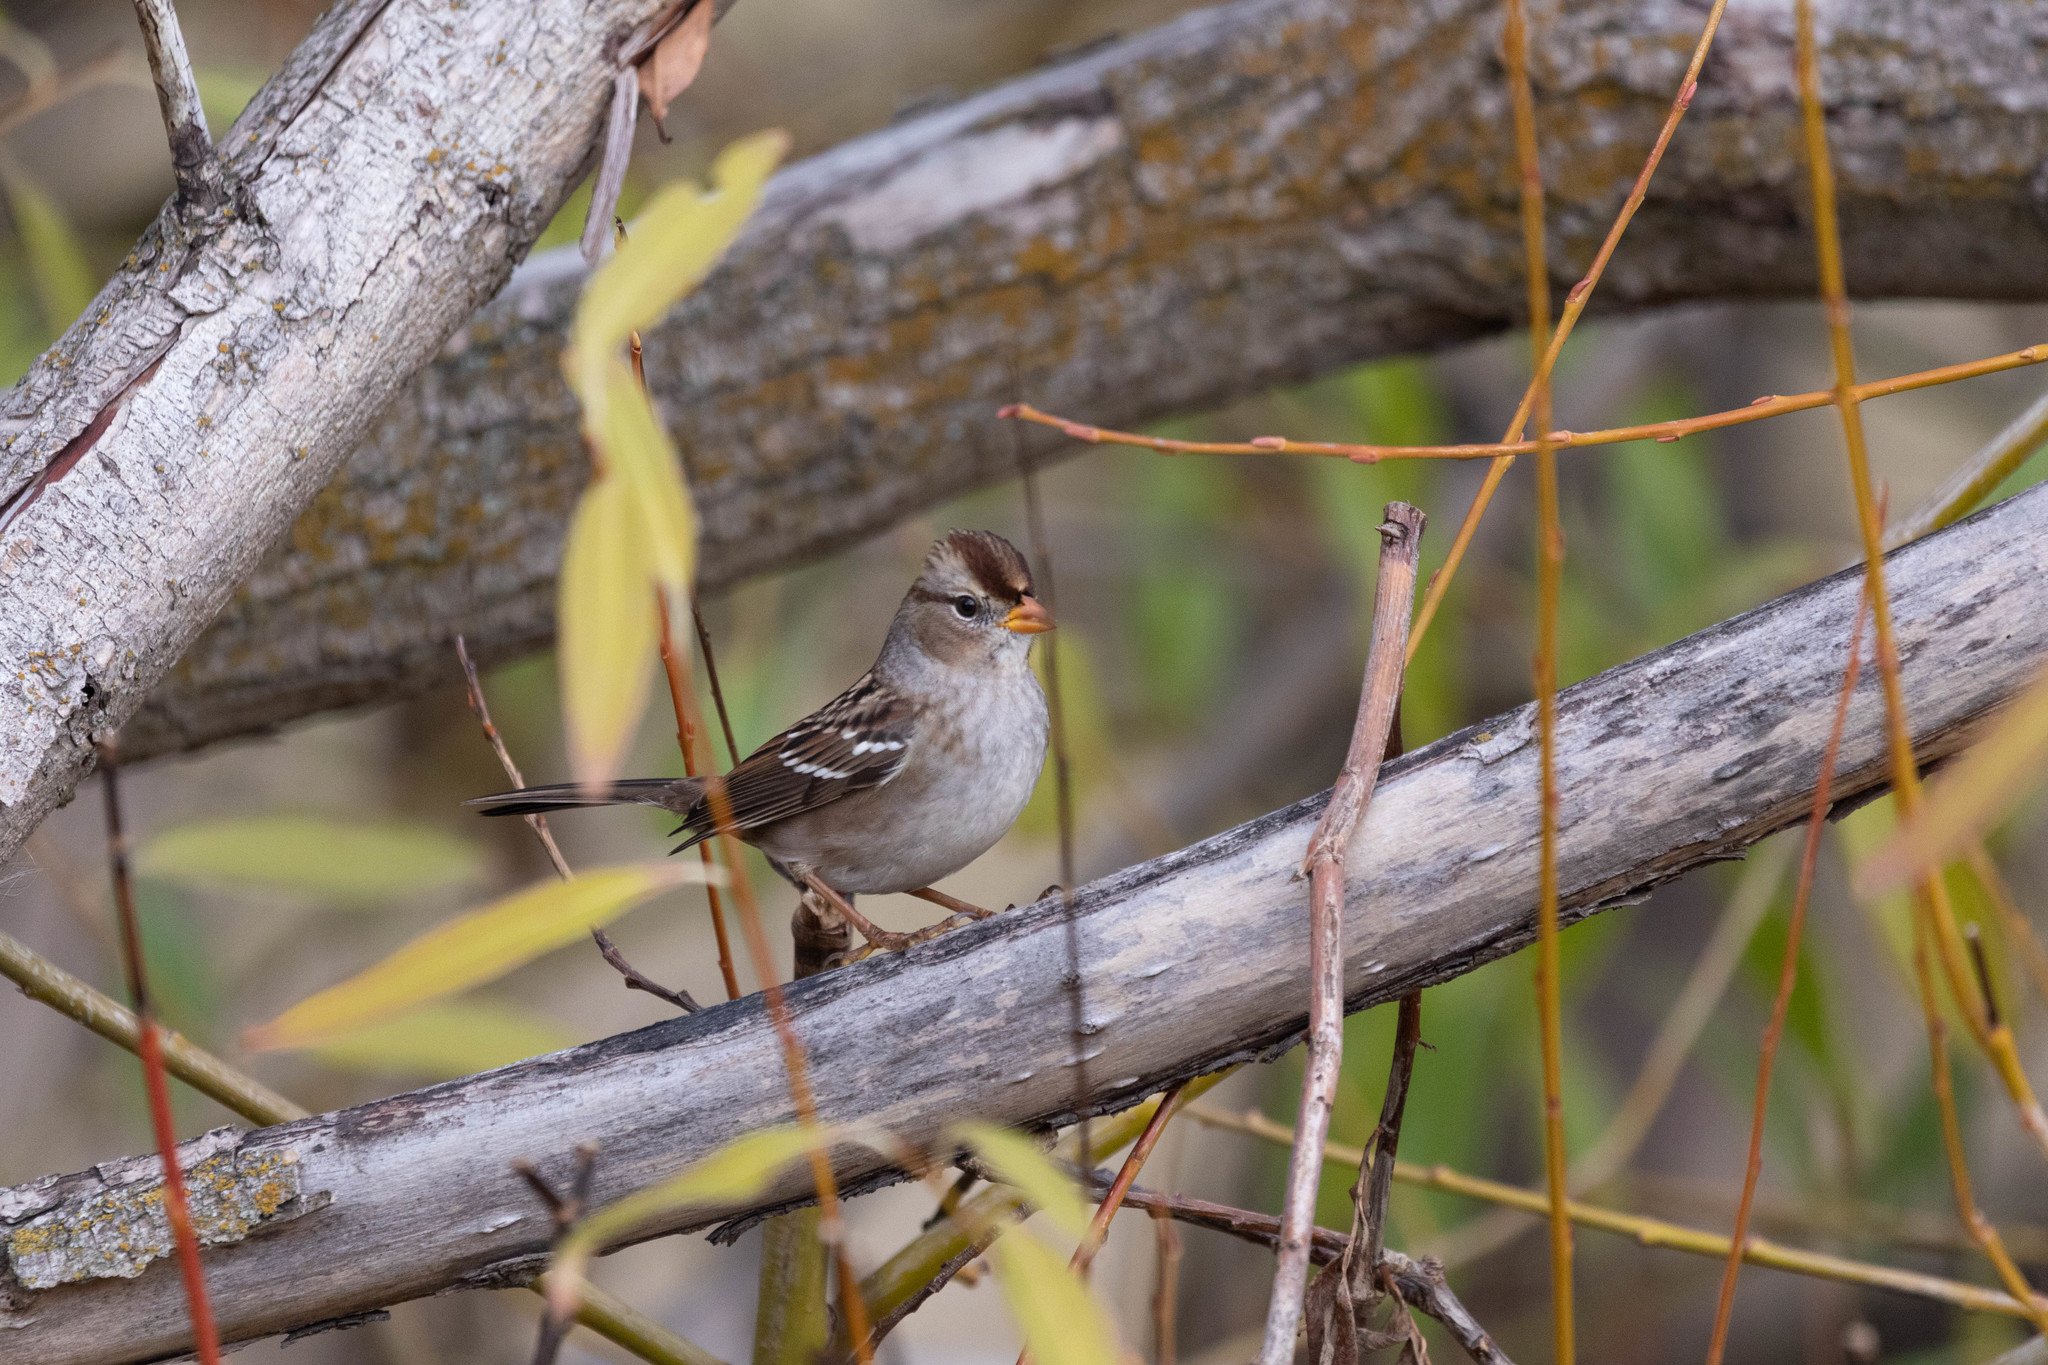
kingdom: Animalia
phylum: Chordata
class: Aves
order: Passeriformes
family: Passerellidae
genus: Zonotrichia
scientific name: Zonotrichia leucophrys
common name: White-crowned sparrow
